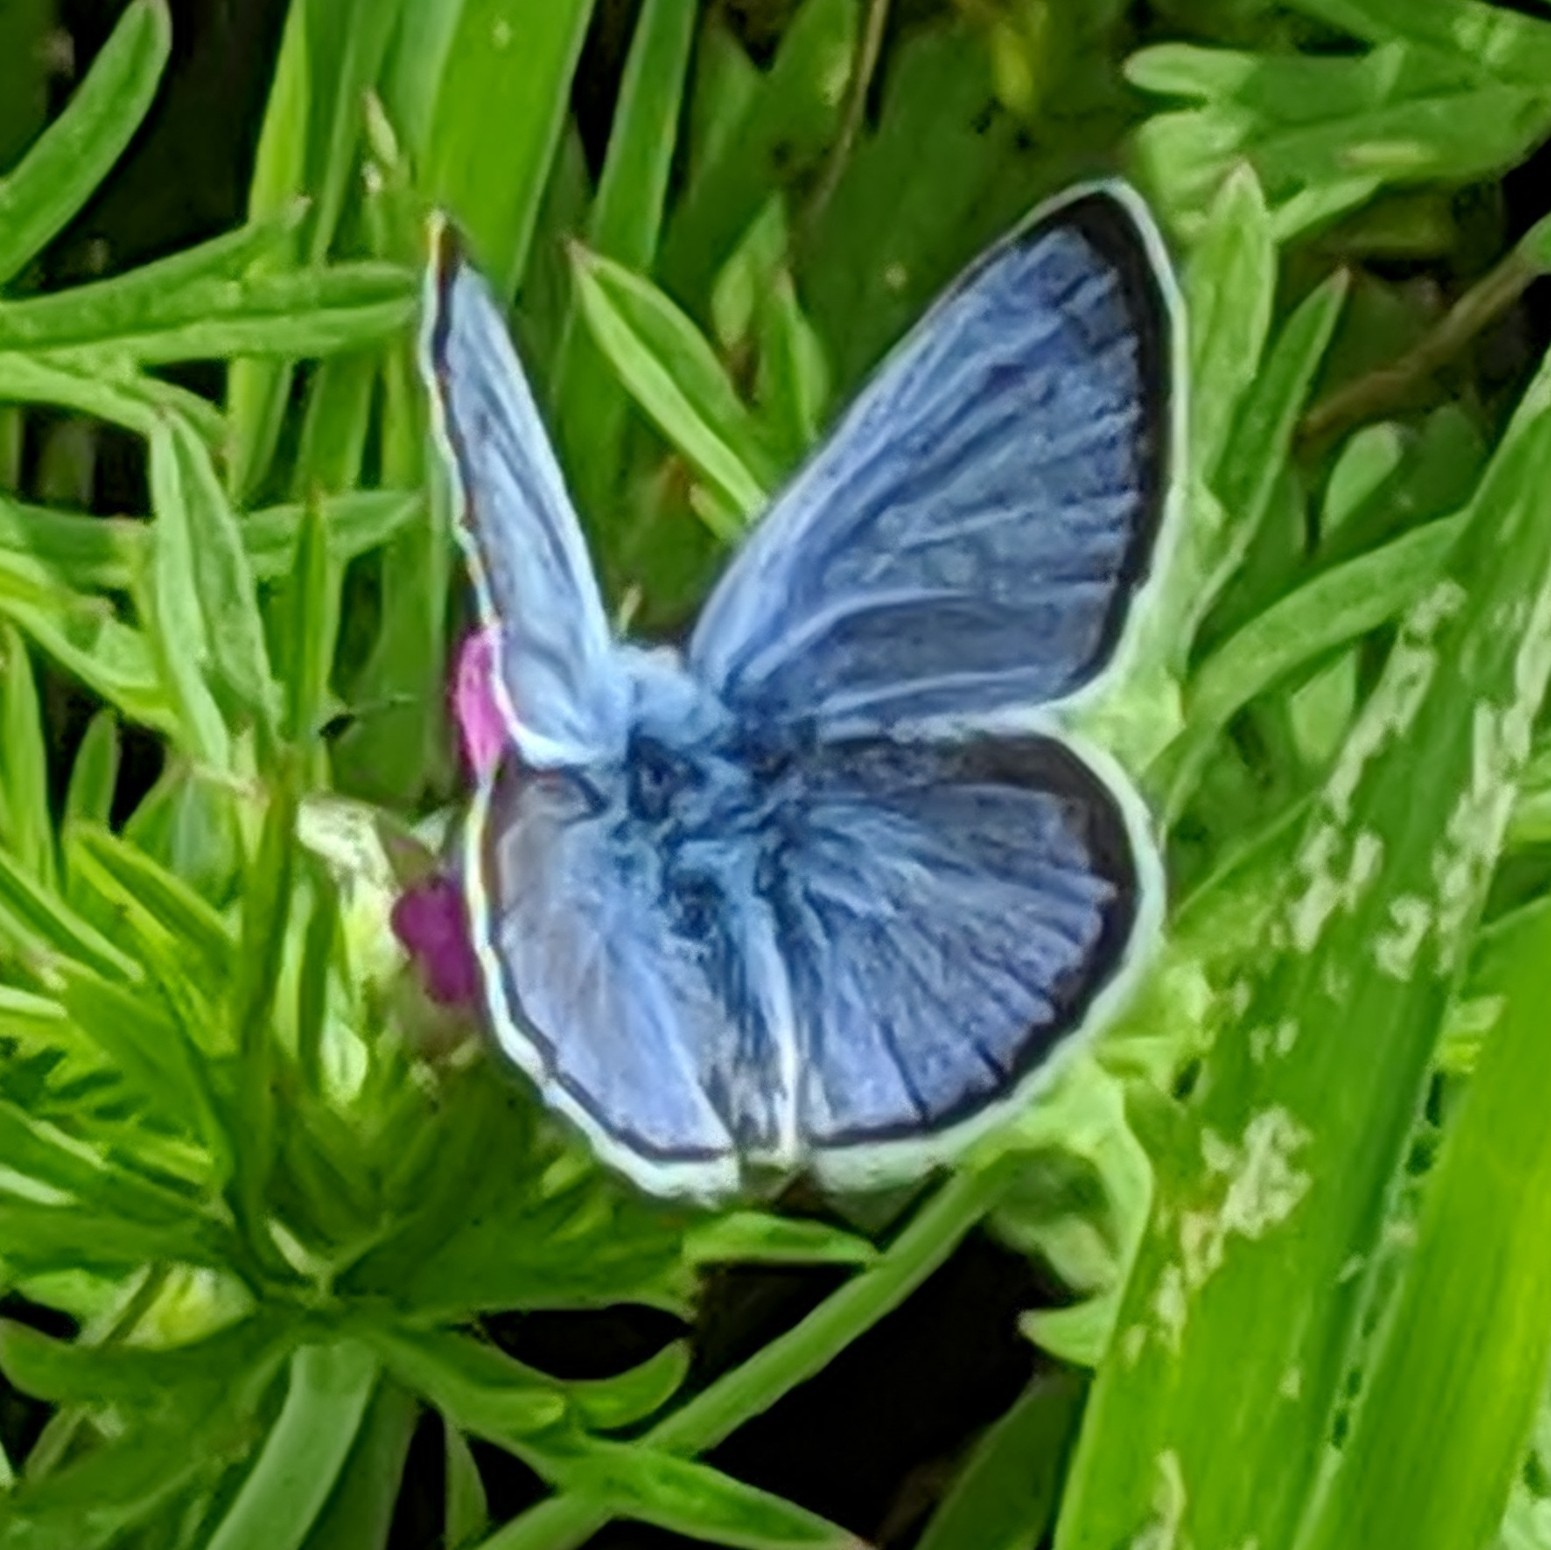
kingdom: Animalia
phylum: Arthropoda
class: Insecta
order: Lepidoptera
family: Lycaenidae
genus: Glaucopsyche
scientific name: Glaucopsyche lygdamus
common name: Silvery blue
